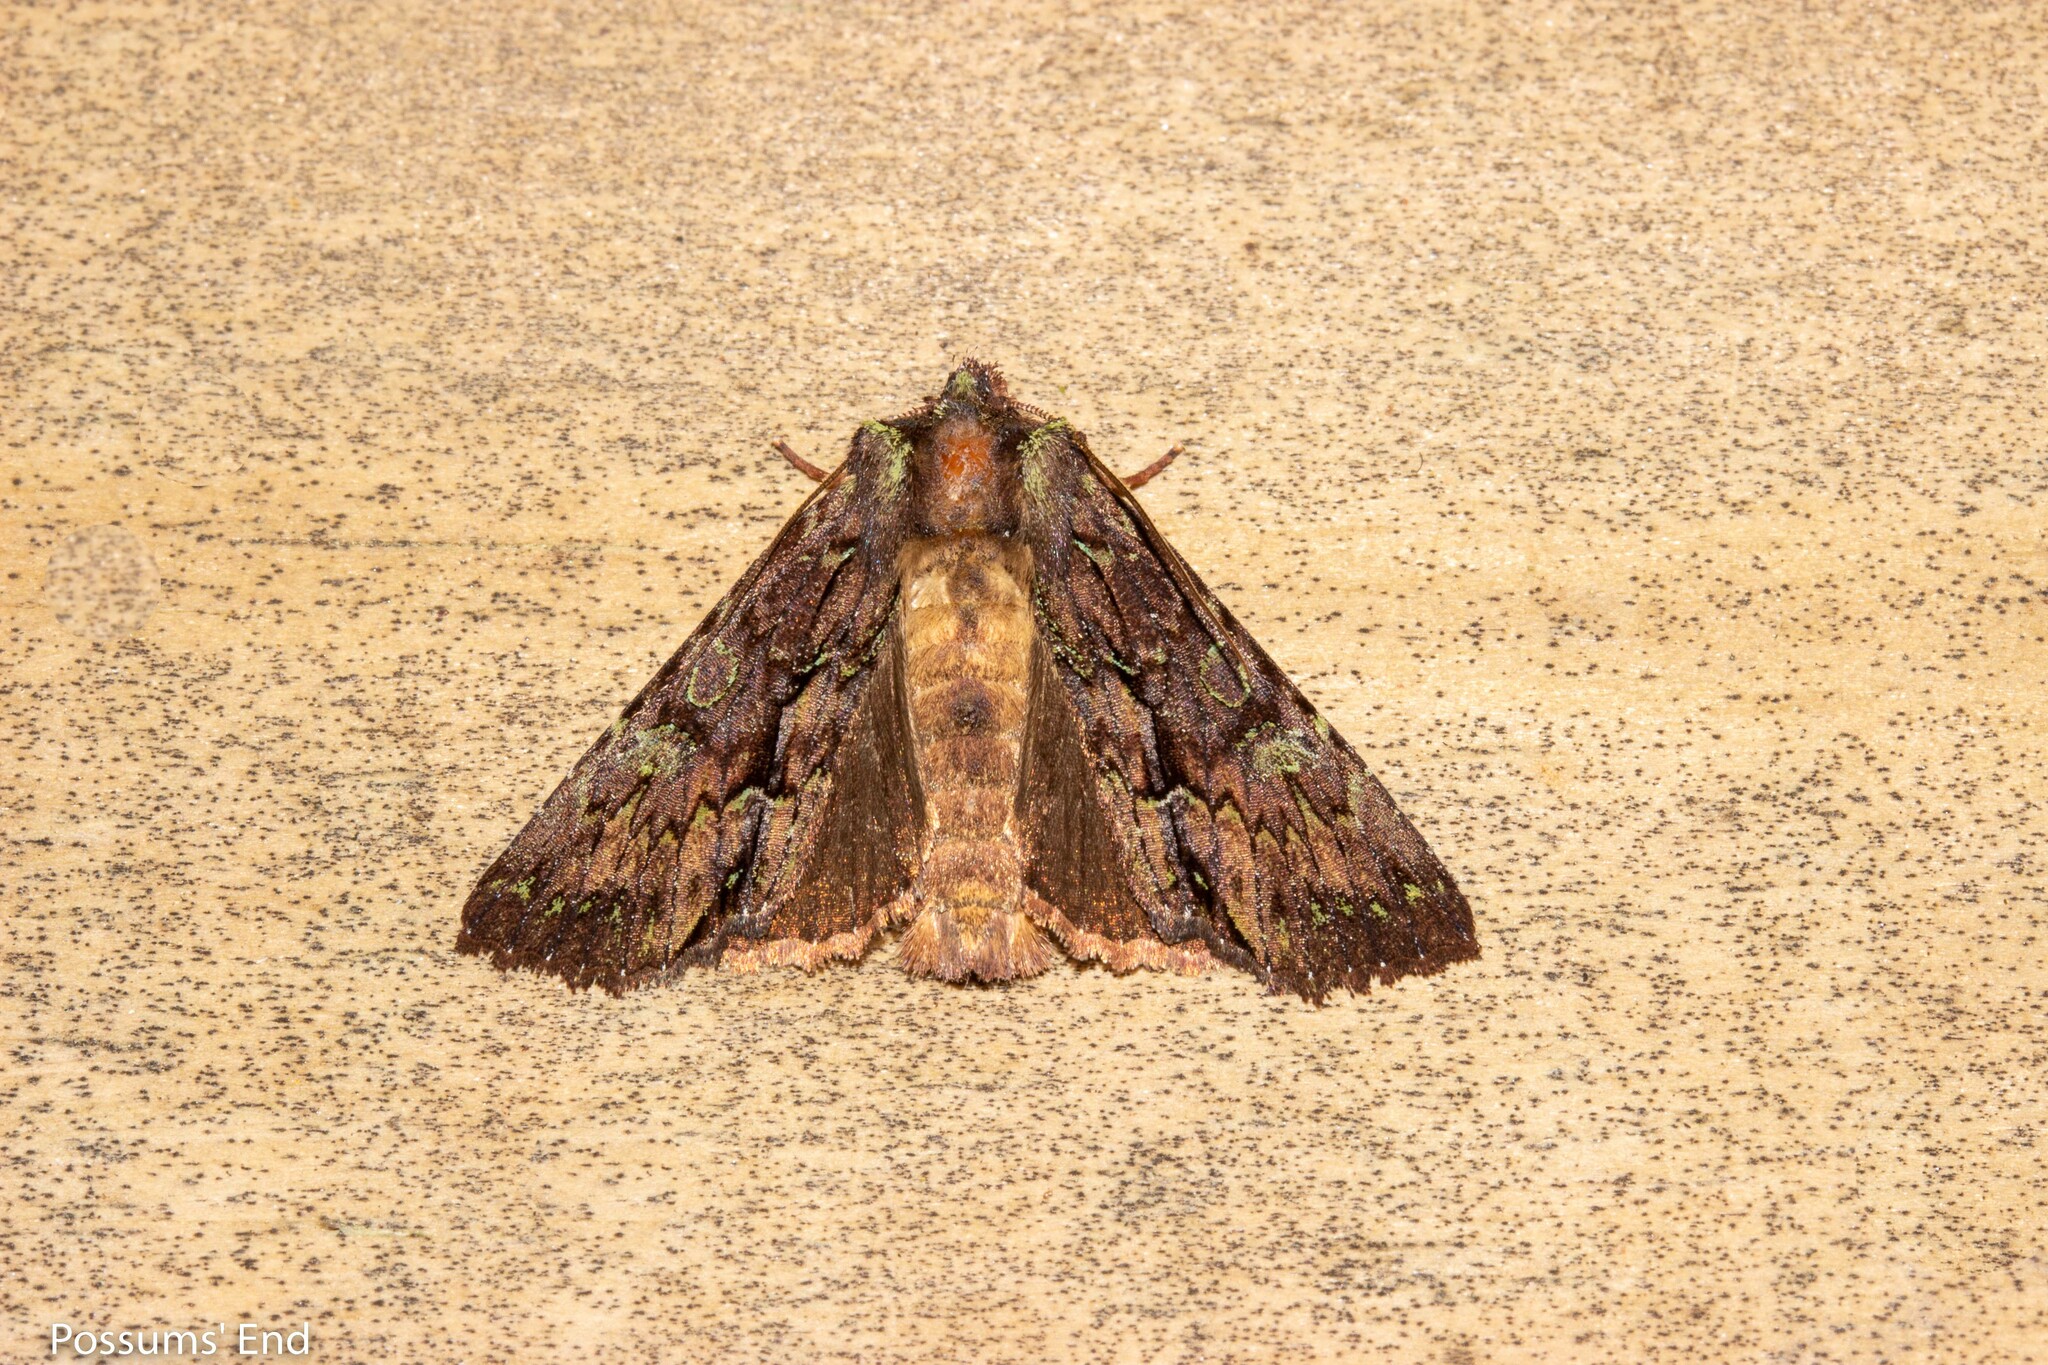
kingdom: Animalia
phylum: Arthropoda
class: Insecta
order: Lepidoptera
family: Noctuidae
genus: Meterana
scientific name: Meterana diatmeta
